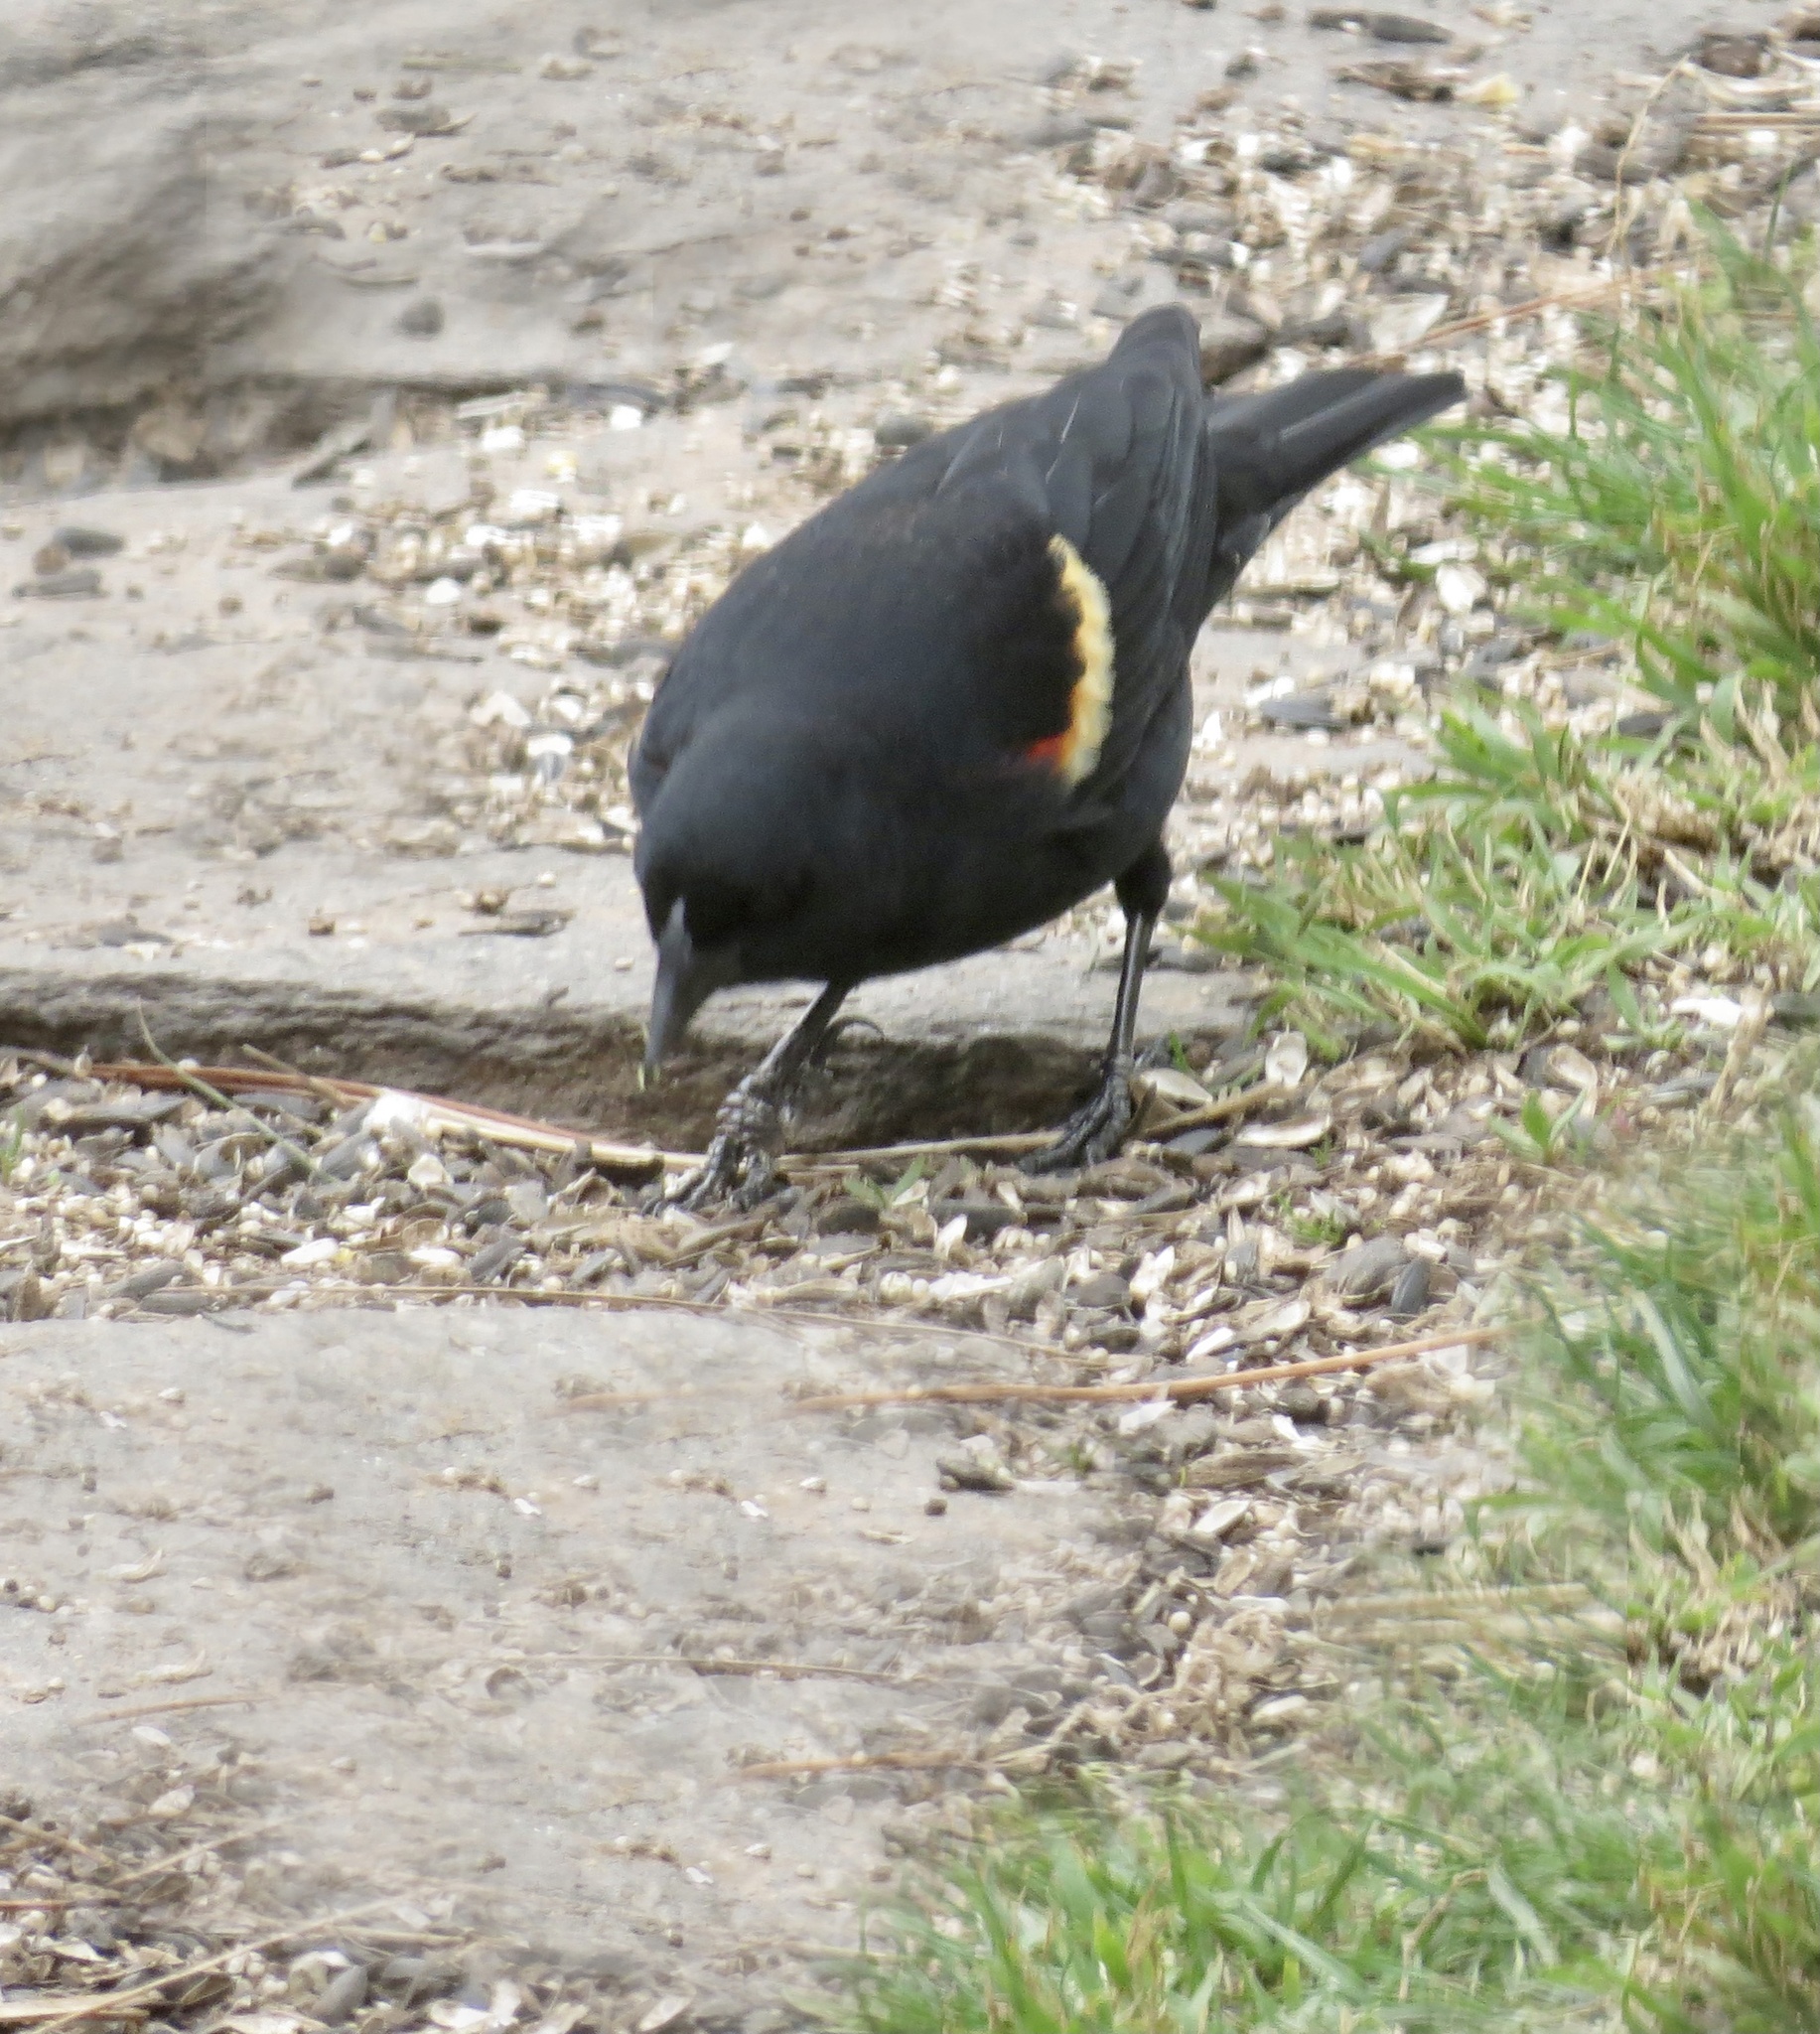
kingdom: Animalia
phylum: Chordata
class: Aves
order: Passeriformes
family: Icteridae
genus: Agelaius
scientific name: Agelaius phoeniceus
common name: Red-winged blackbird
